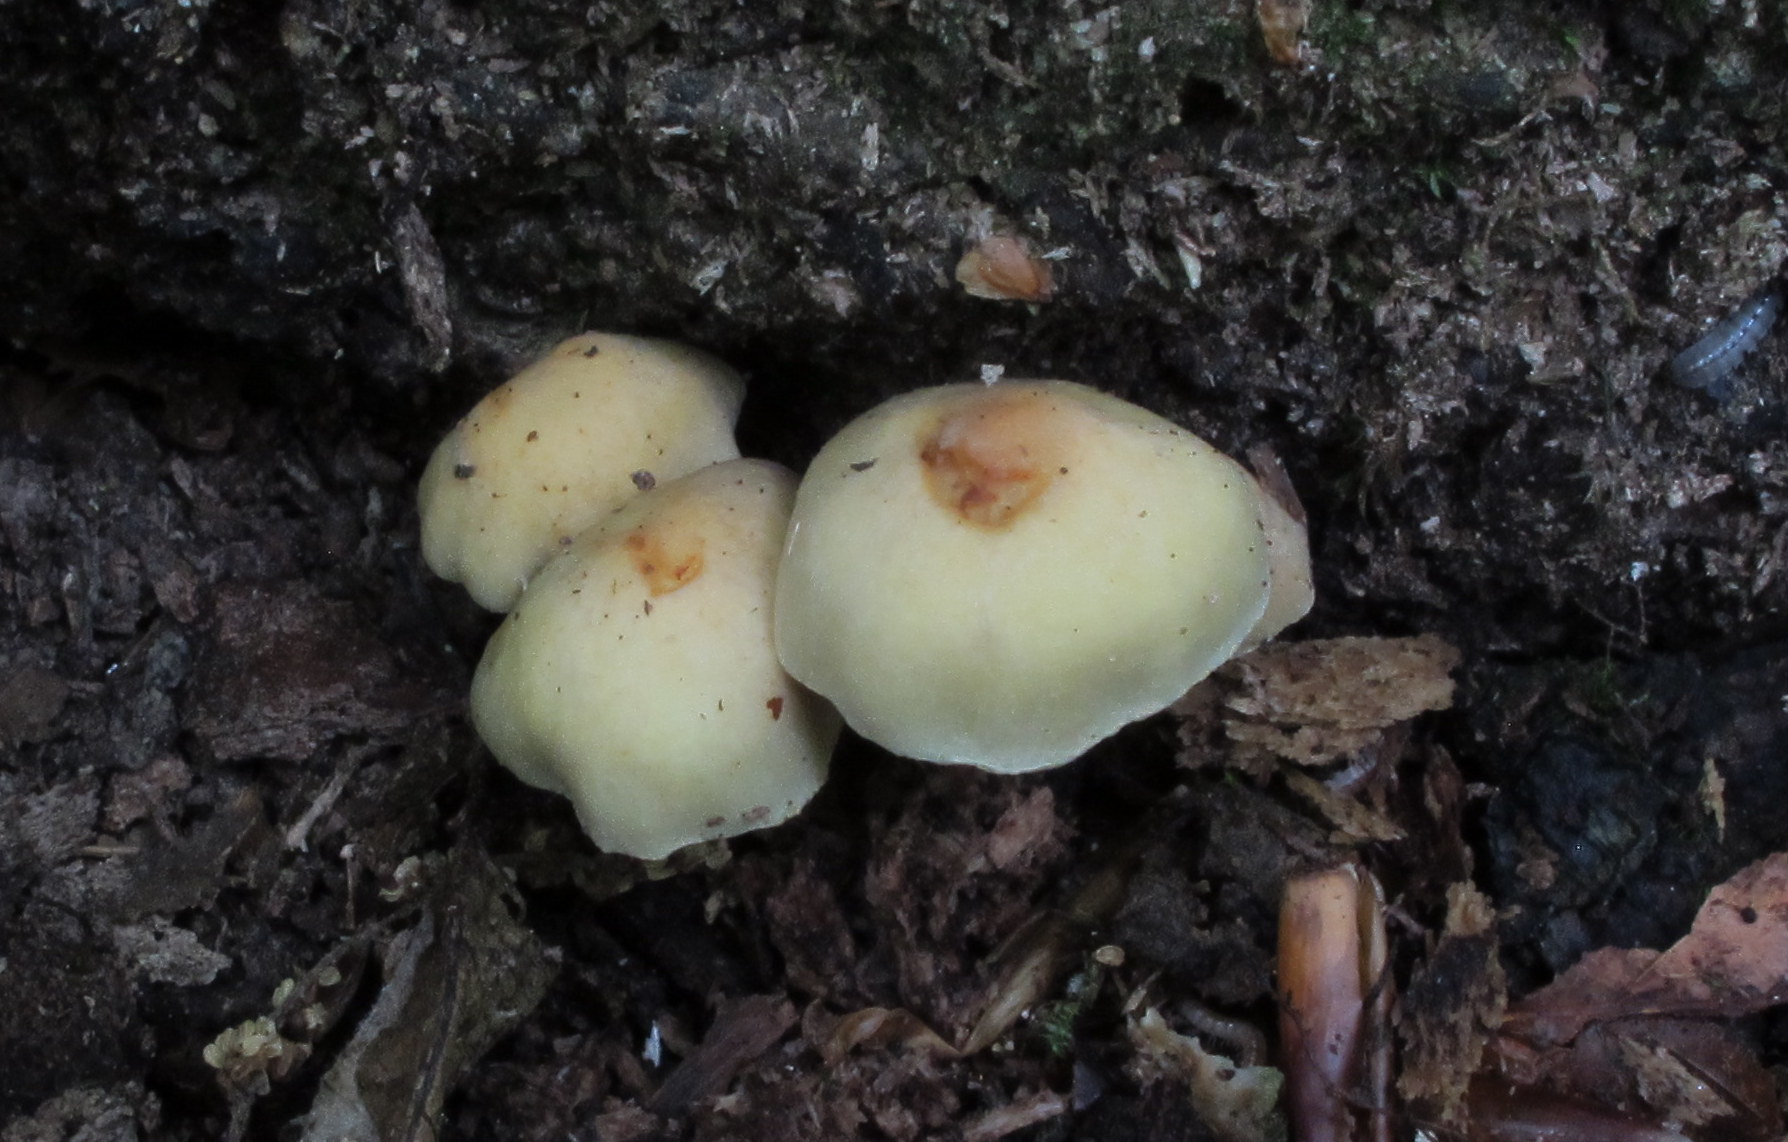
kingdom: Fungi
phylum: Basidiomycota
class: Agaricomycetes
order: Agaricales
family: Strophariaceae
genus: Hypholoma
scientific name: Hypholoma fasciculare
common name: Sulphur tuft
